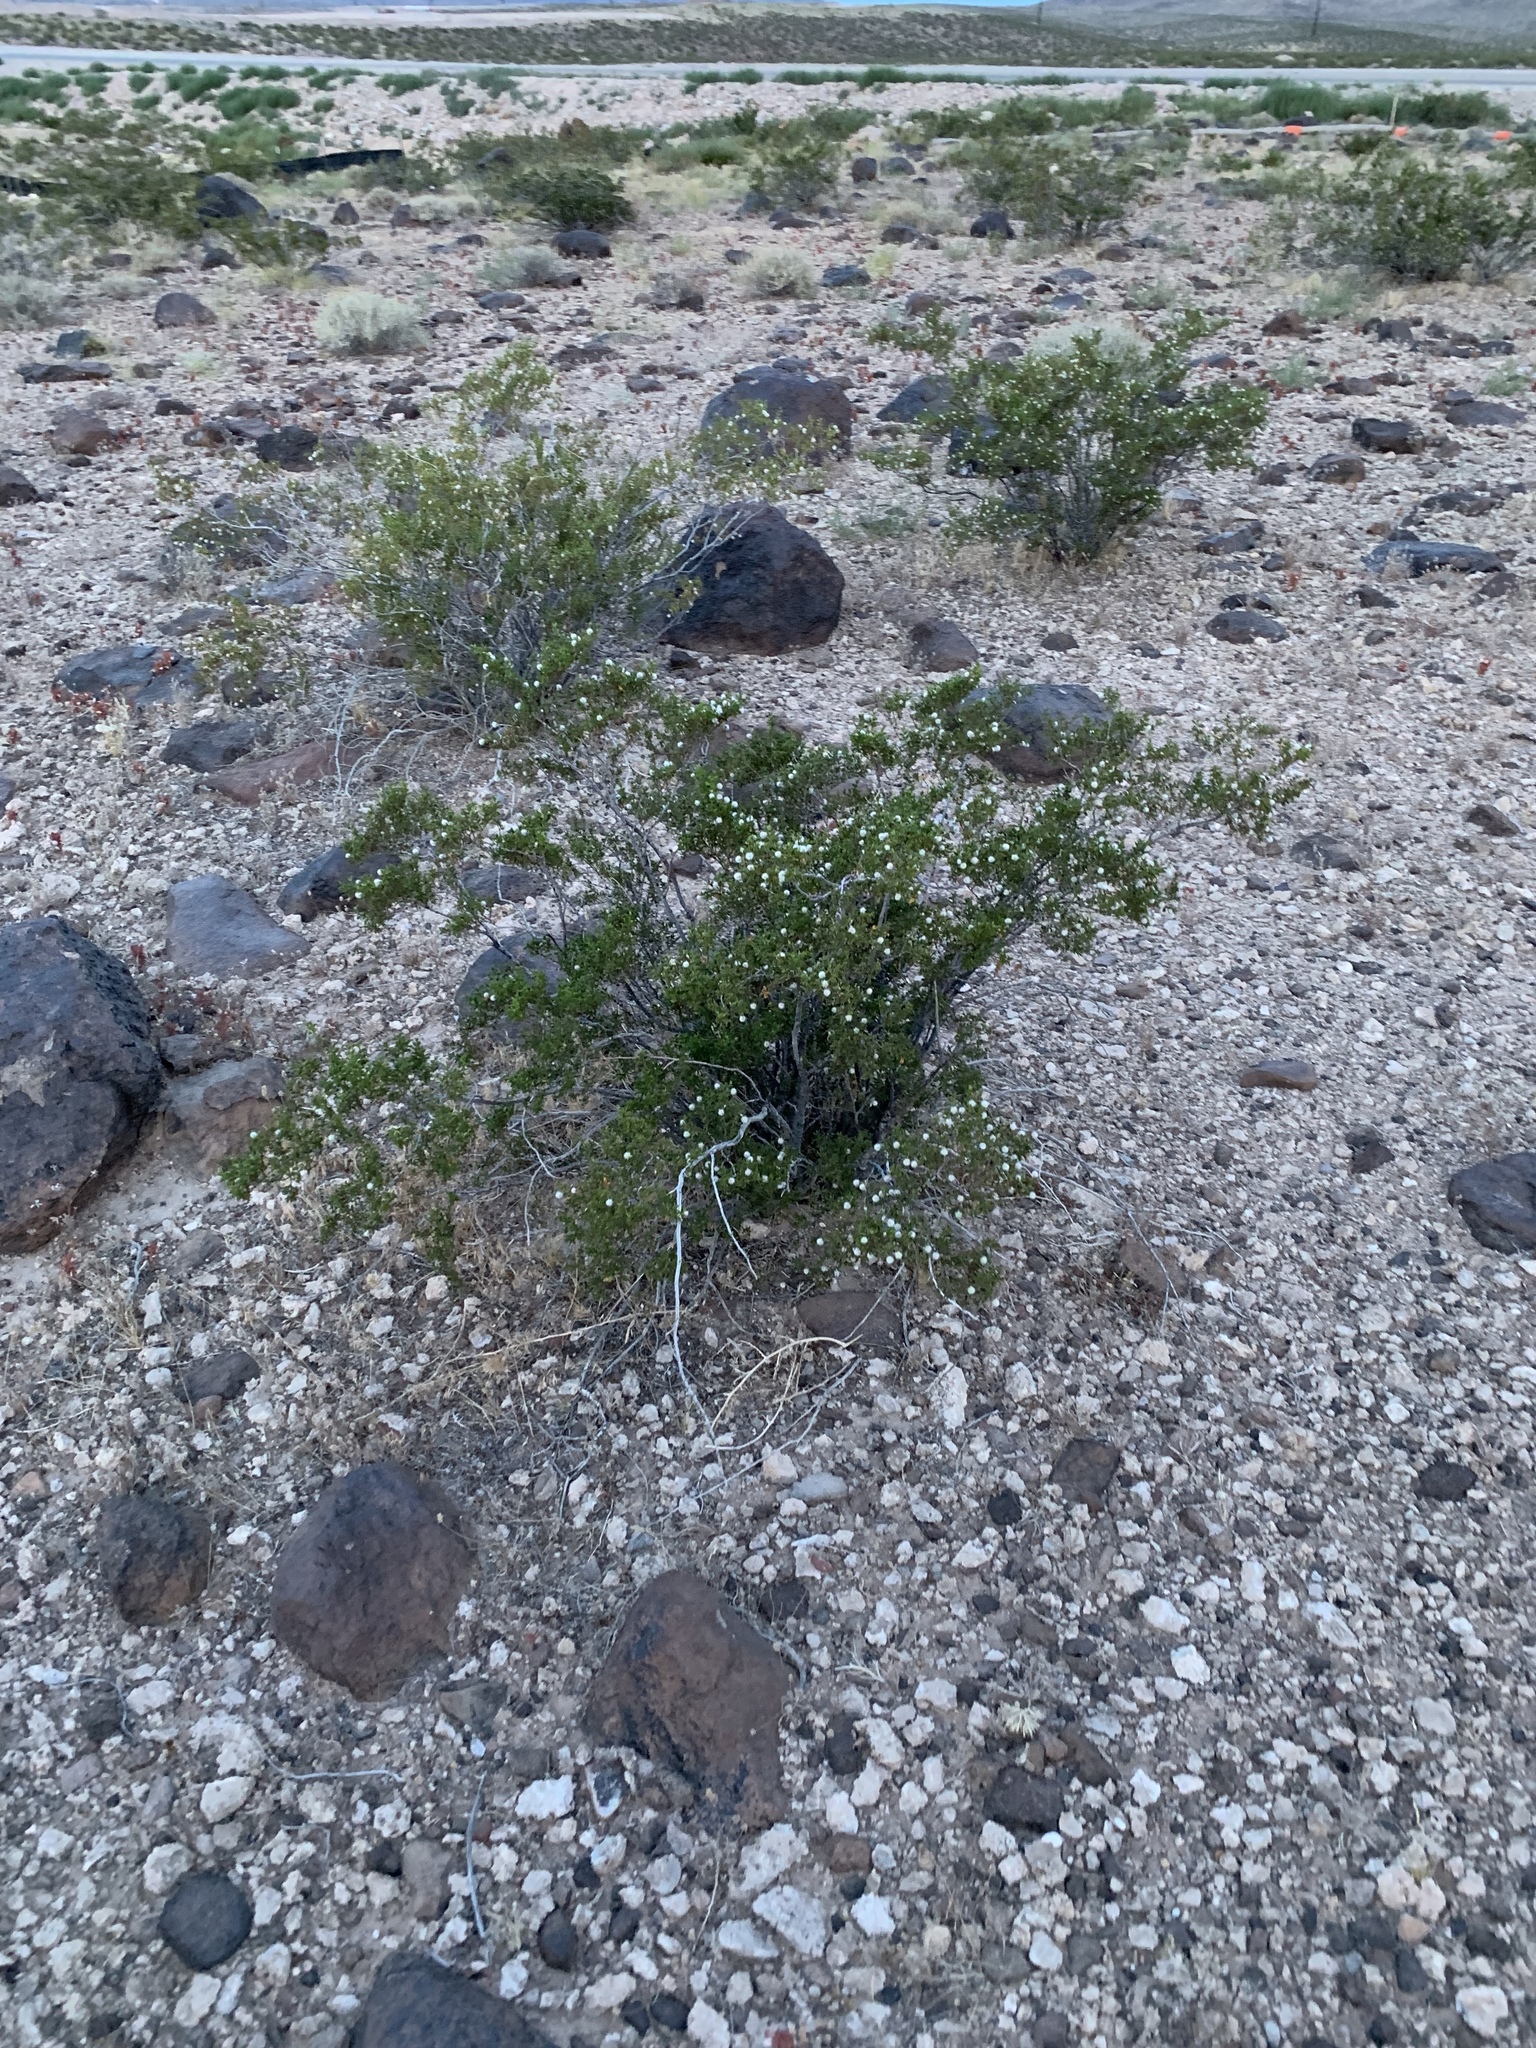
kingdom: Plantae
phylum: Tracheophyta
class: Magnoliopsida
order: Zygophyllales
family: Zygophyllaceae
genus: Larrea
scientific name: Larrea tridentata
